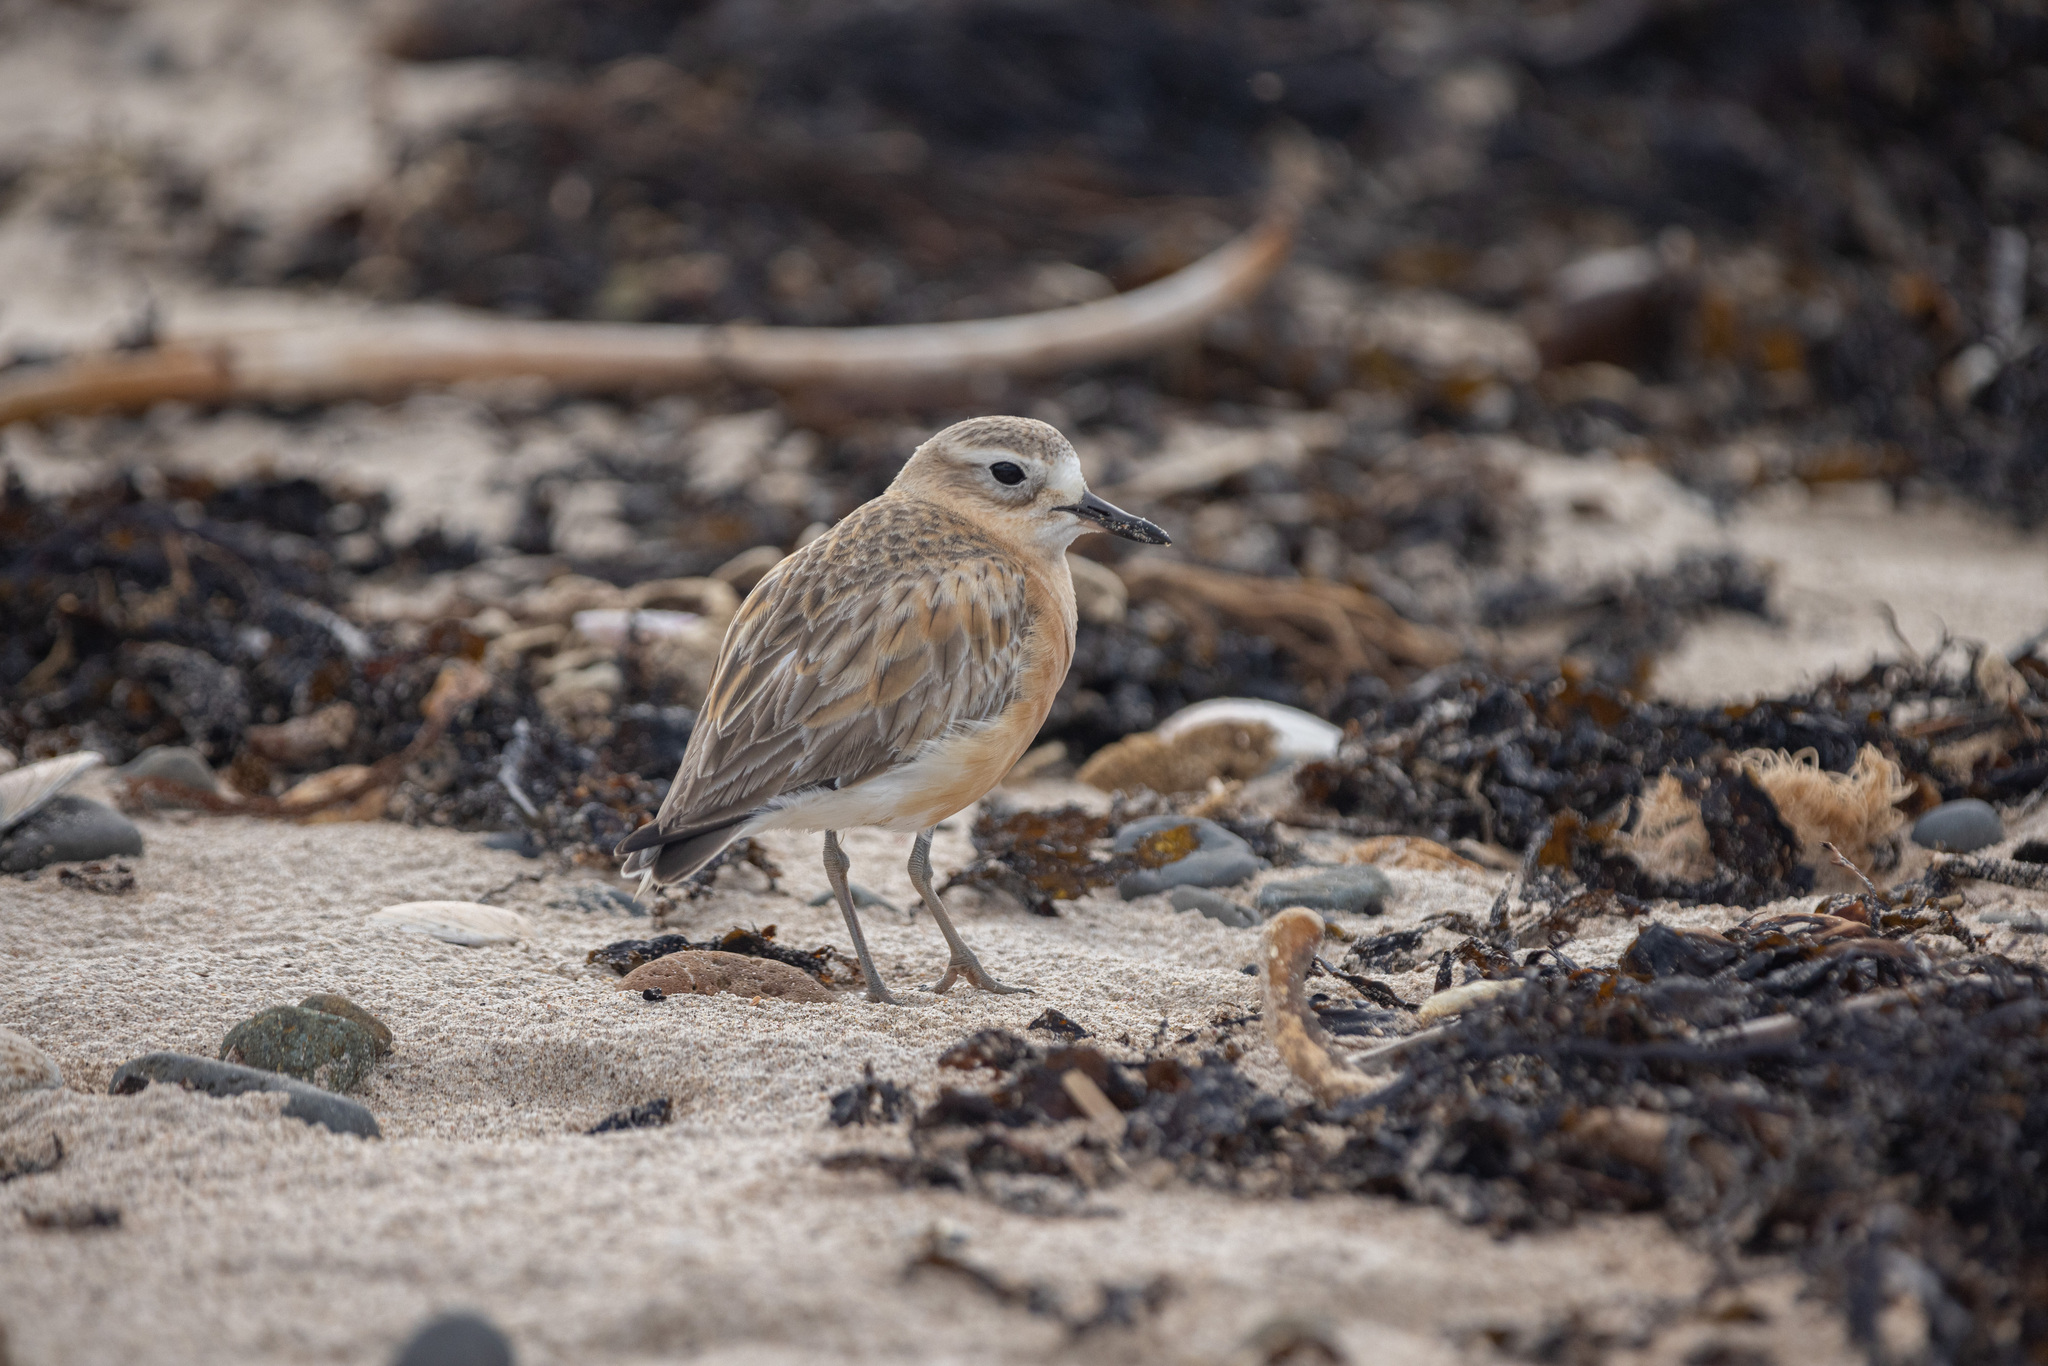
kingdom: Animalia
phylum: Chordata
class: Aves
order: Charadriiformes
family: Charadriidae
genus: Anarhynchus
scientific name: Anarhynchus
